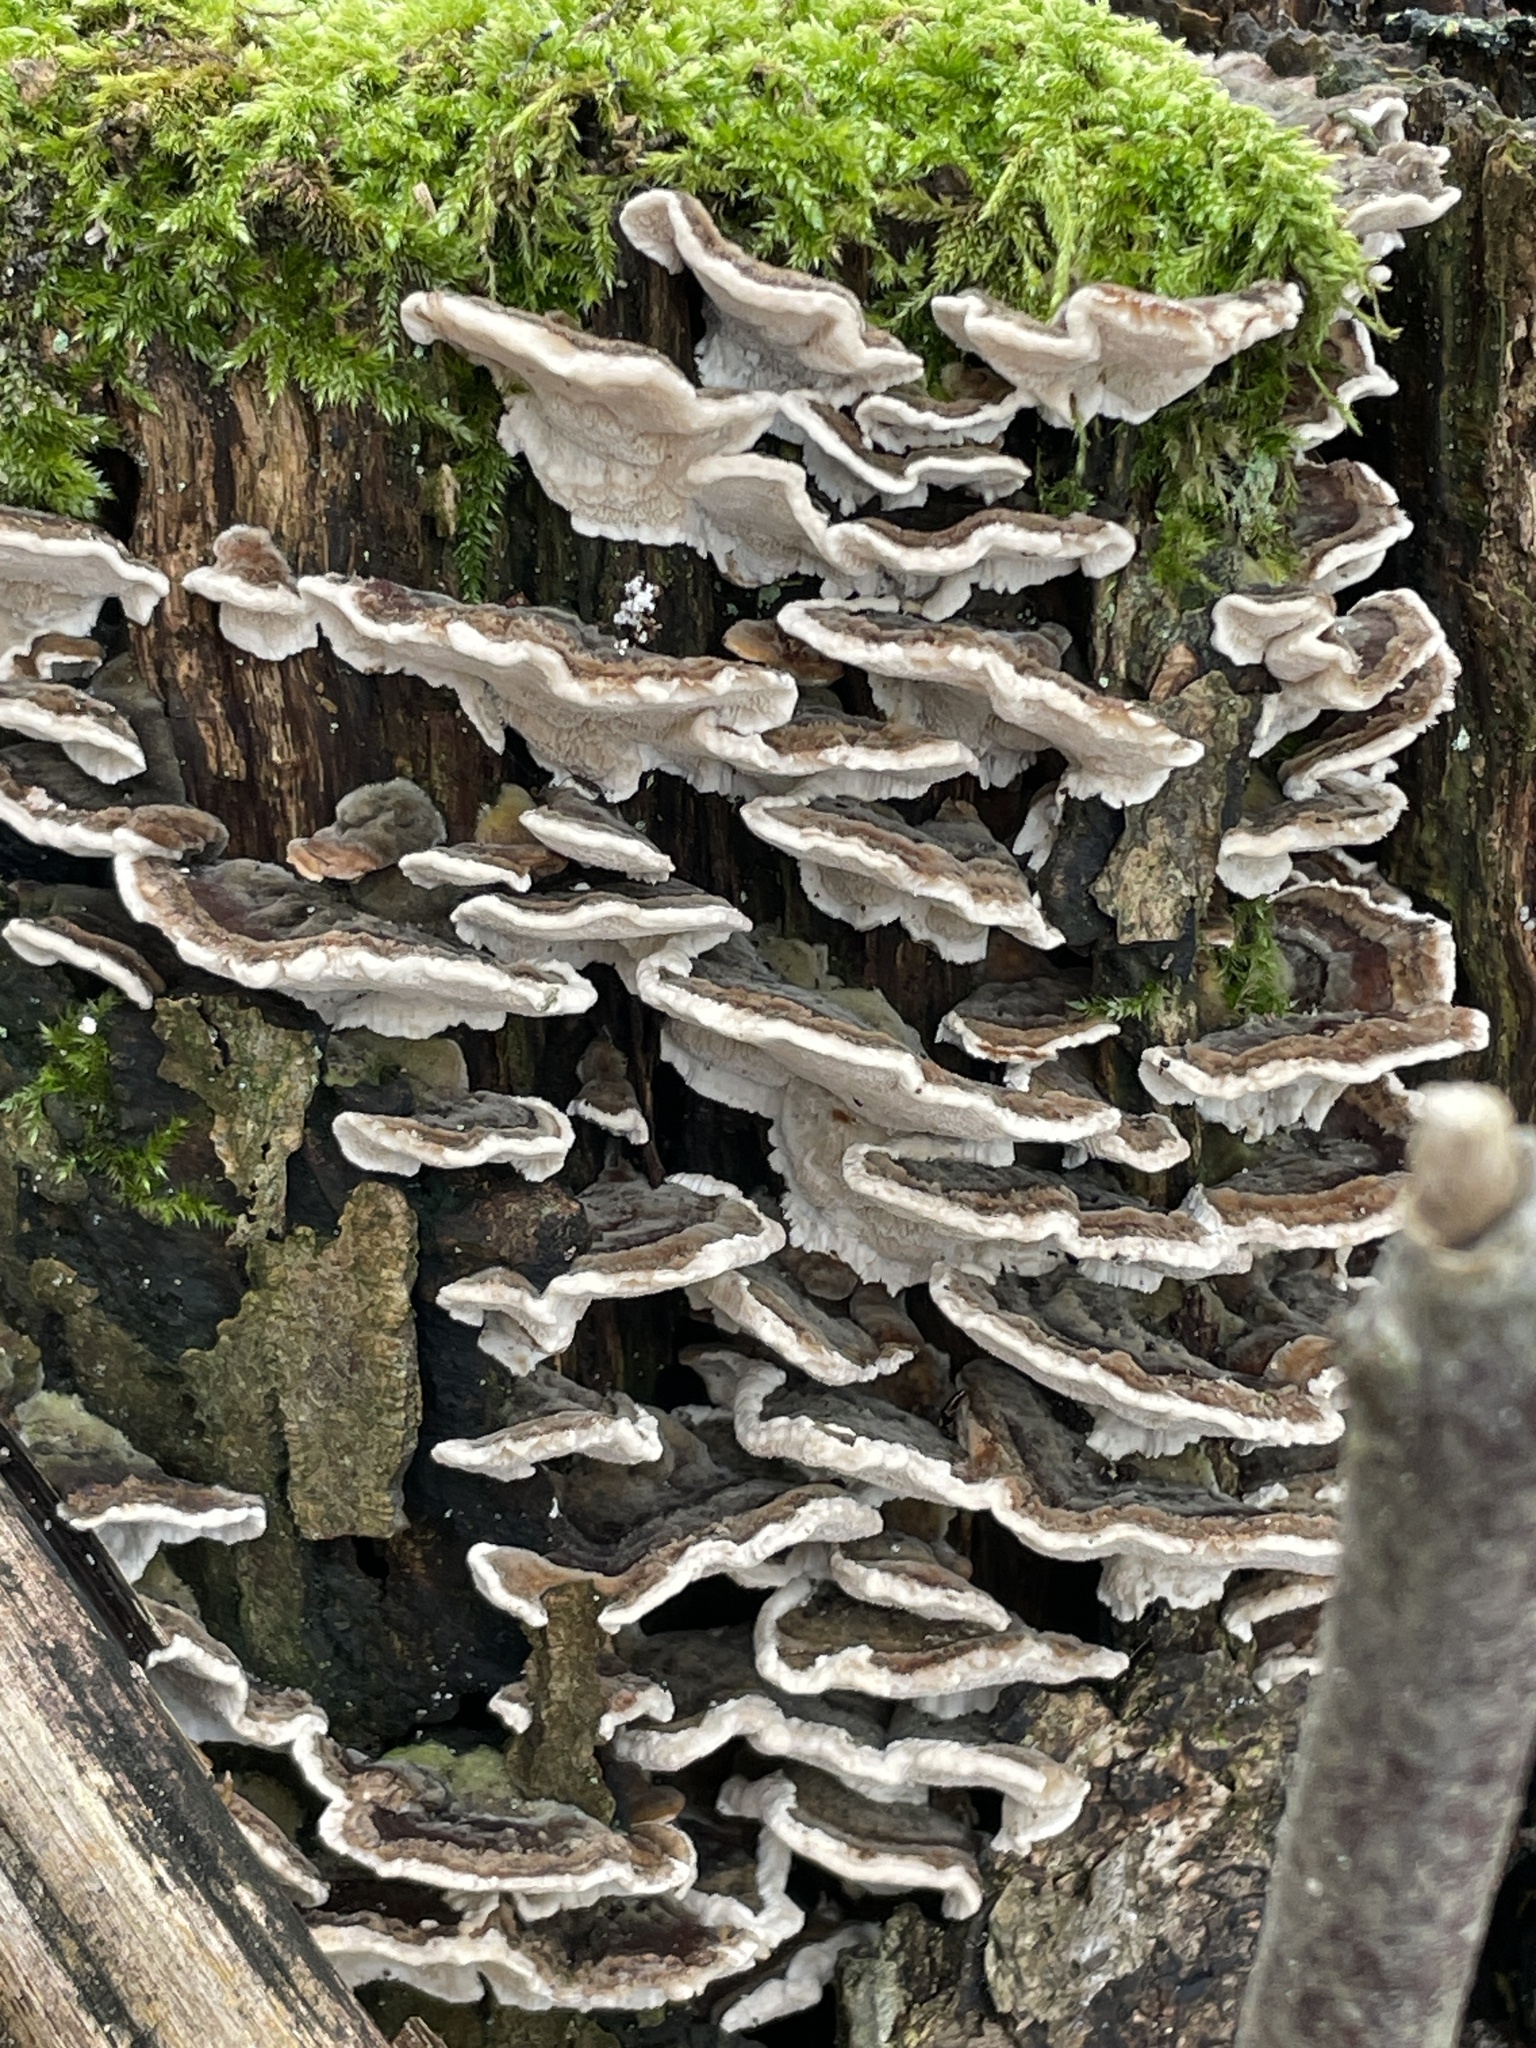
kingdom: Fungi
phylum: Basidiomycota
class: Agaricomycetes
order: Polyporales
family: Polyporaceae
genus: Trametes
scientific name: Trametes versicolor
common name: Turkeytail
